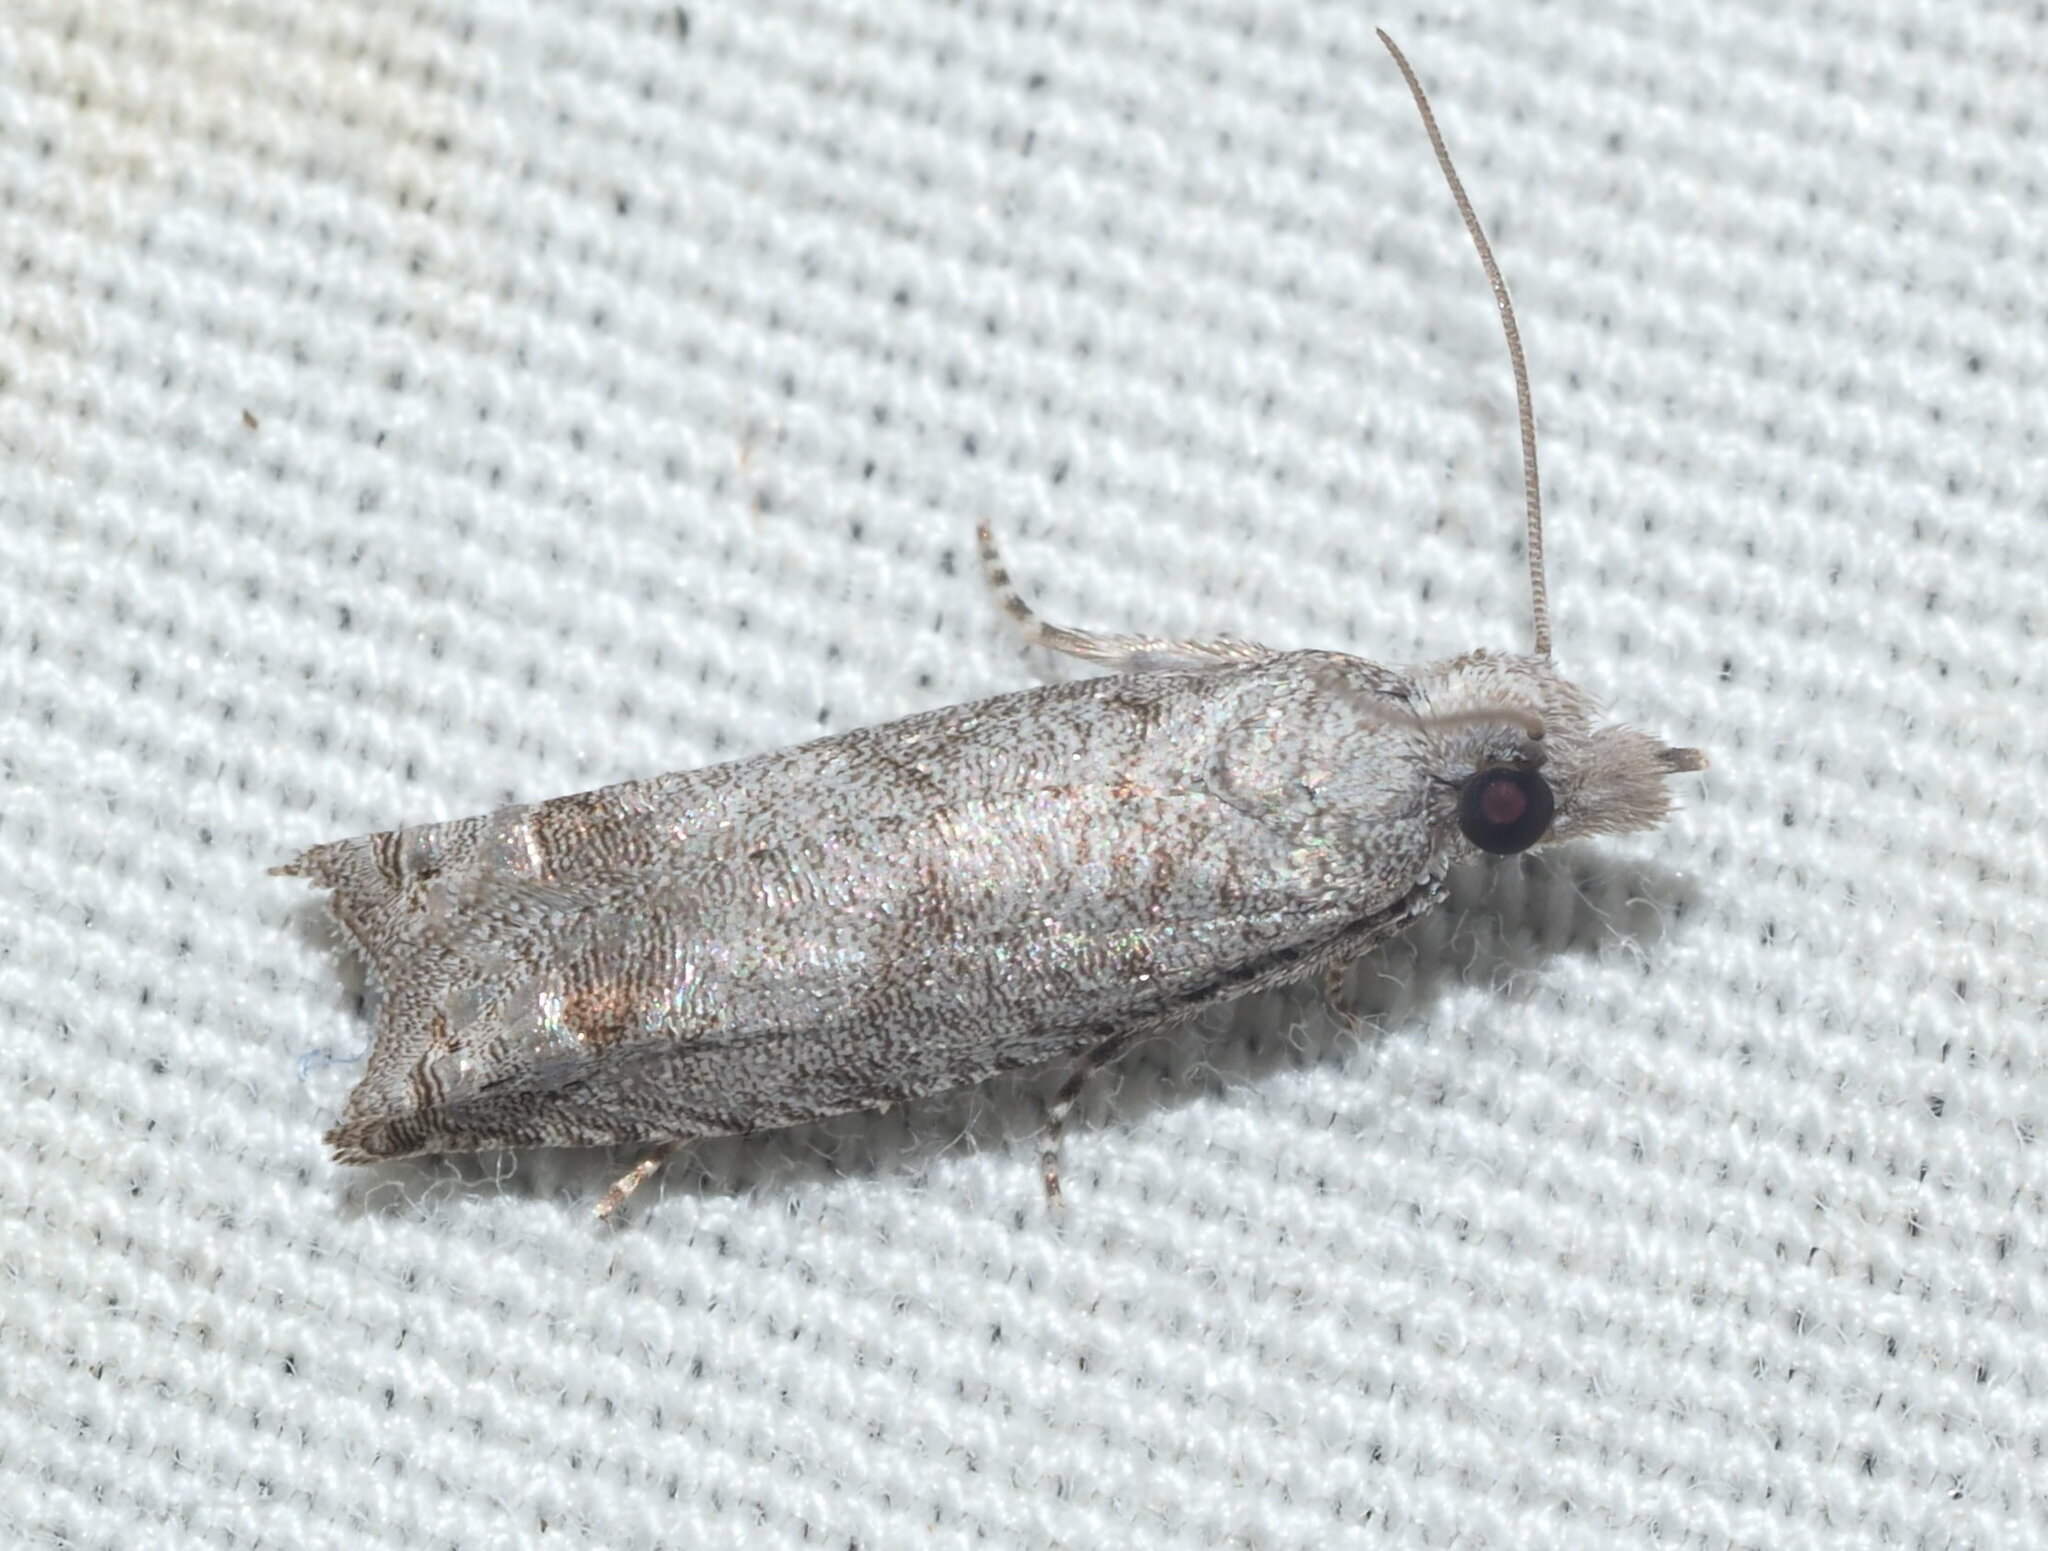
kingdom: Animalia
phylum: Arthropoda
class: Insecta
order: Lepidoptera
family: Tortricidae
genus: Eccoptocera
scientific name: Eccoptocera
